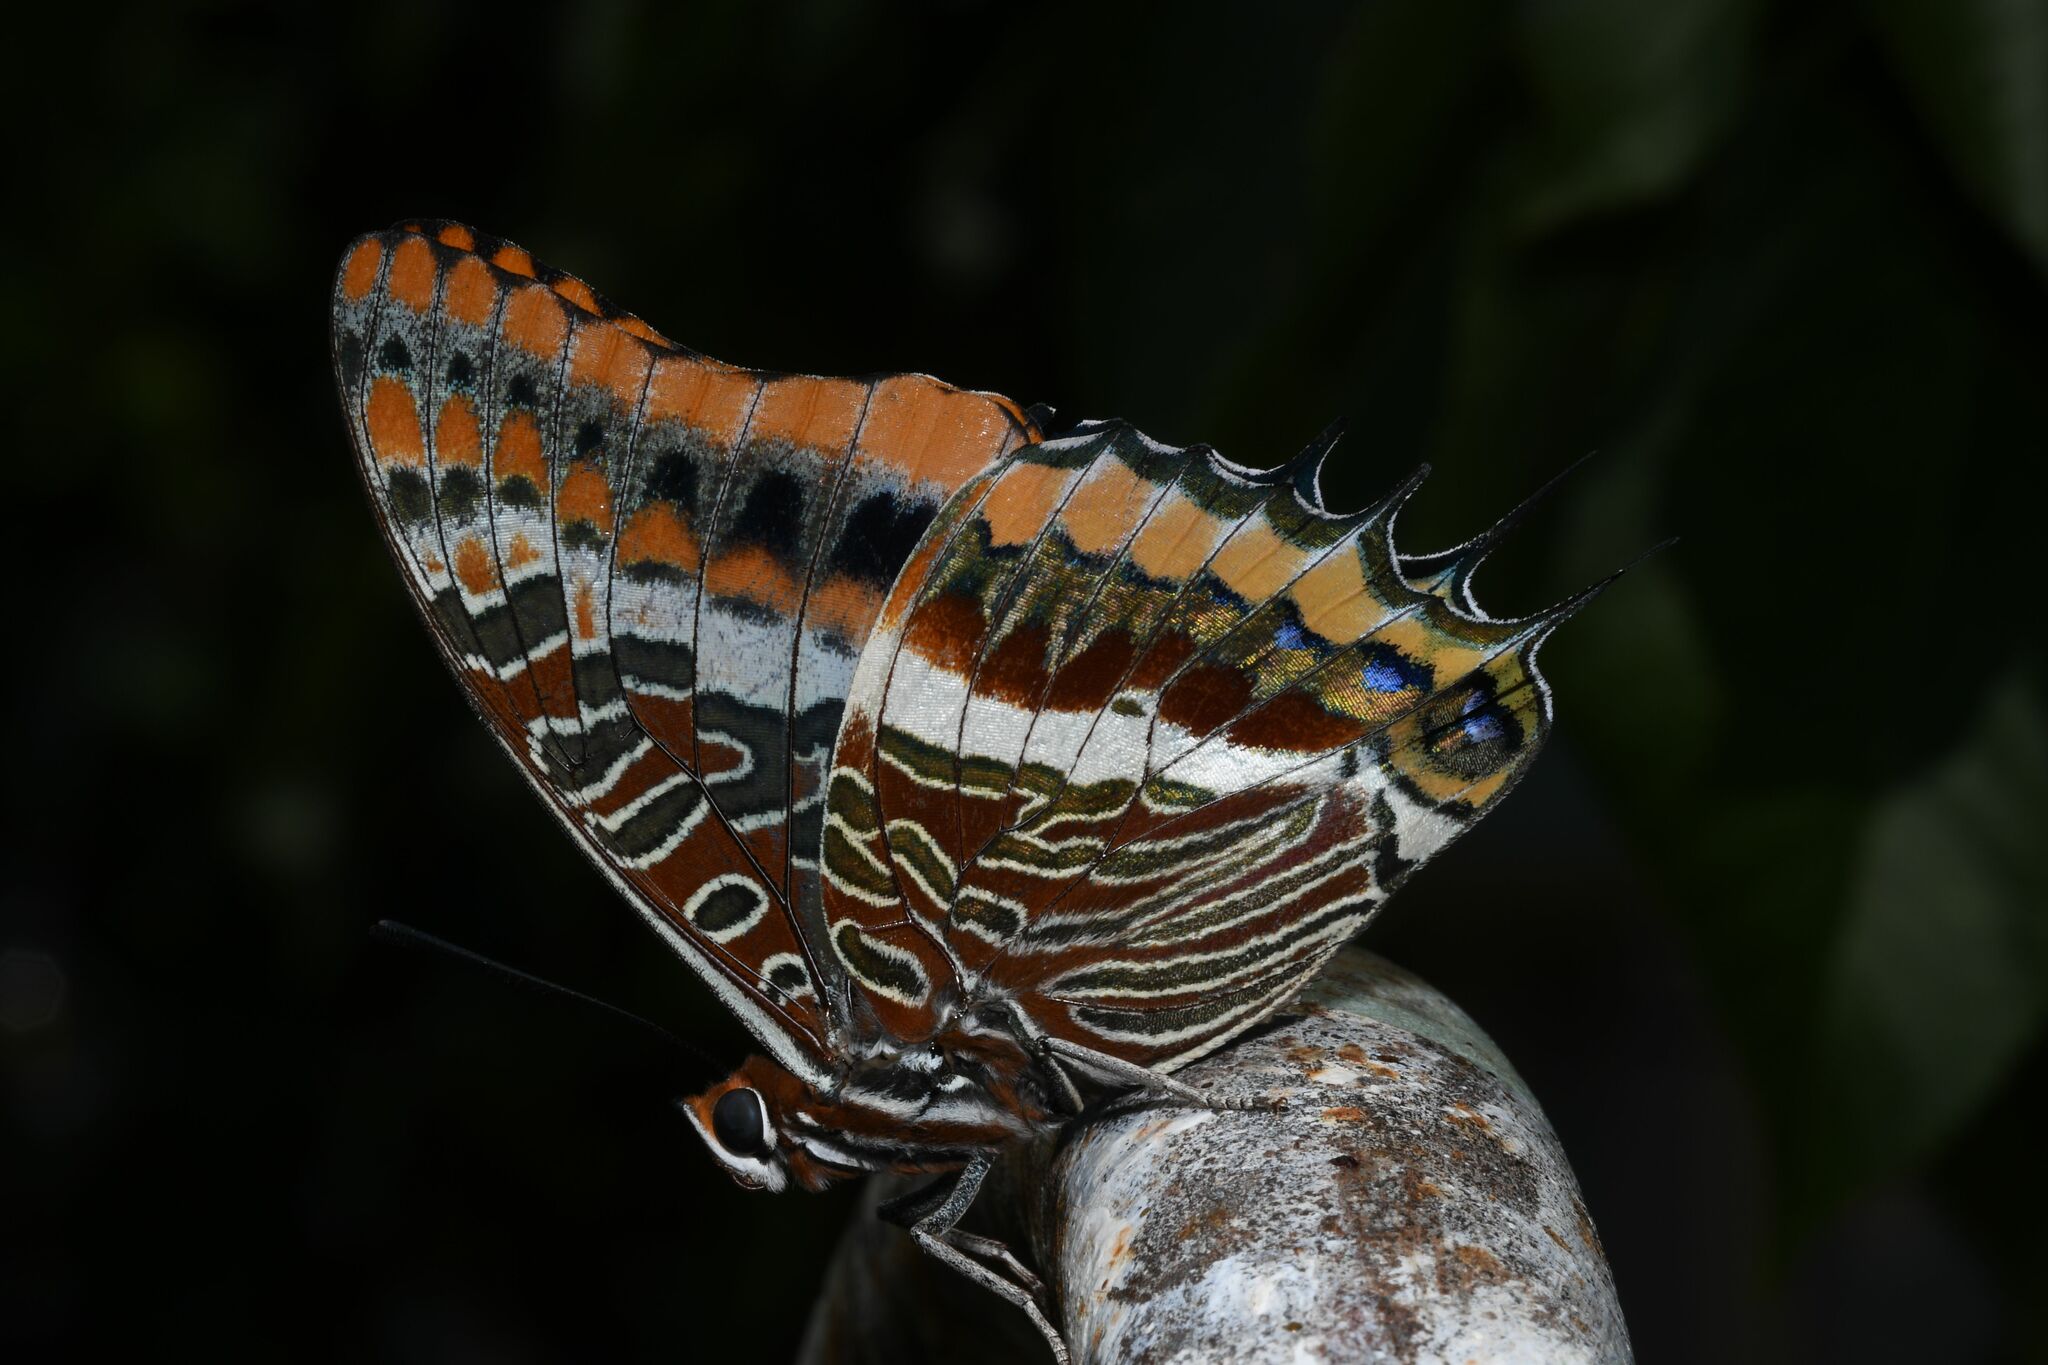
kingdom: Animalia
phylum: Arthropoda
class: Insecta
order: Lepidoptera
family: Nymphalidae
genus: Charaxes
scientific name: Charaxes jasius
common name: Two tailed pasha
